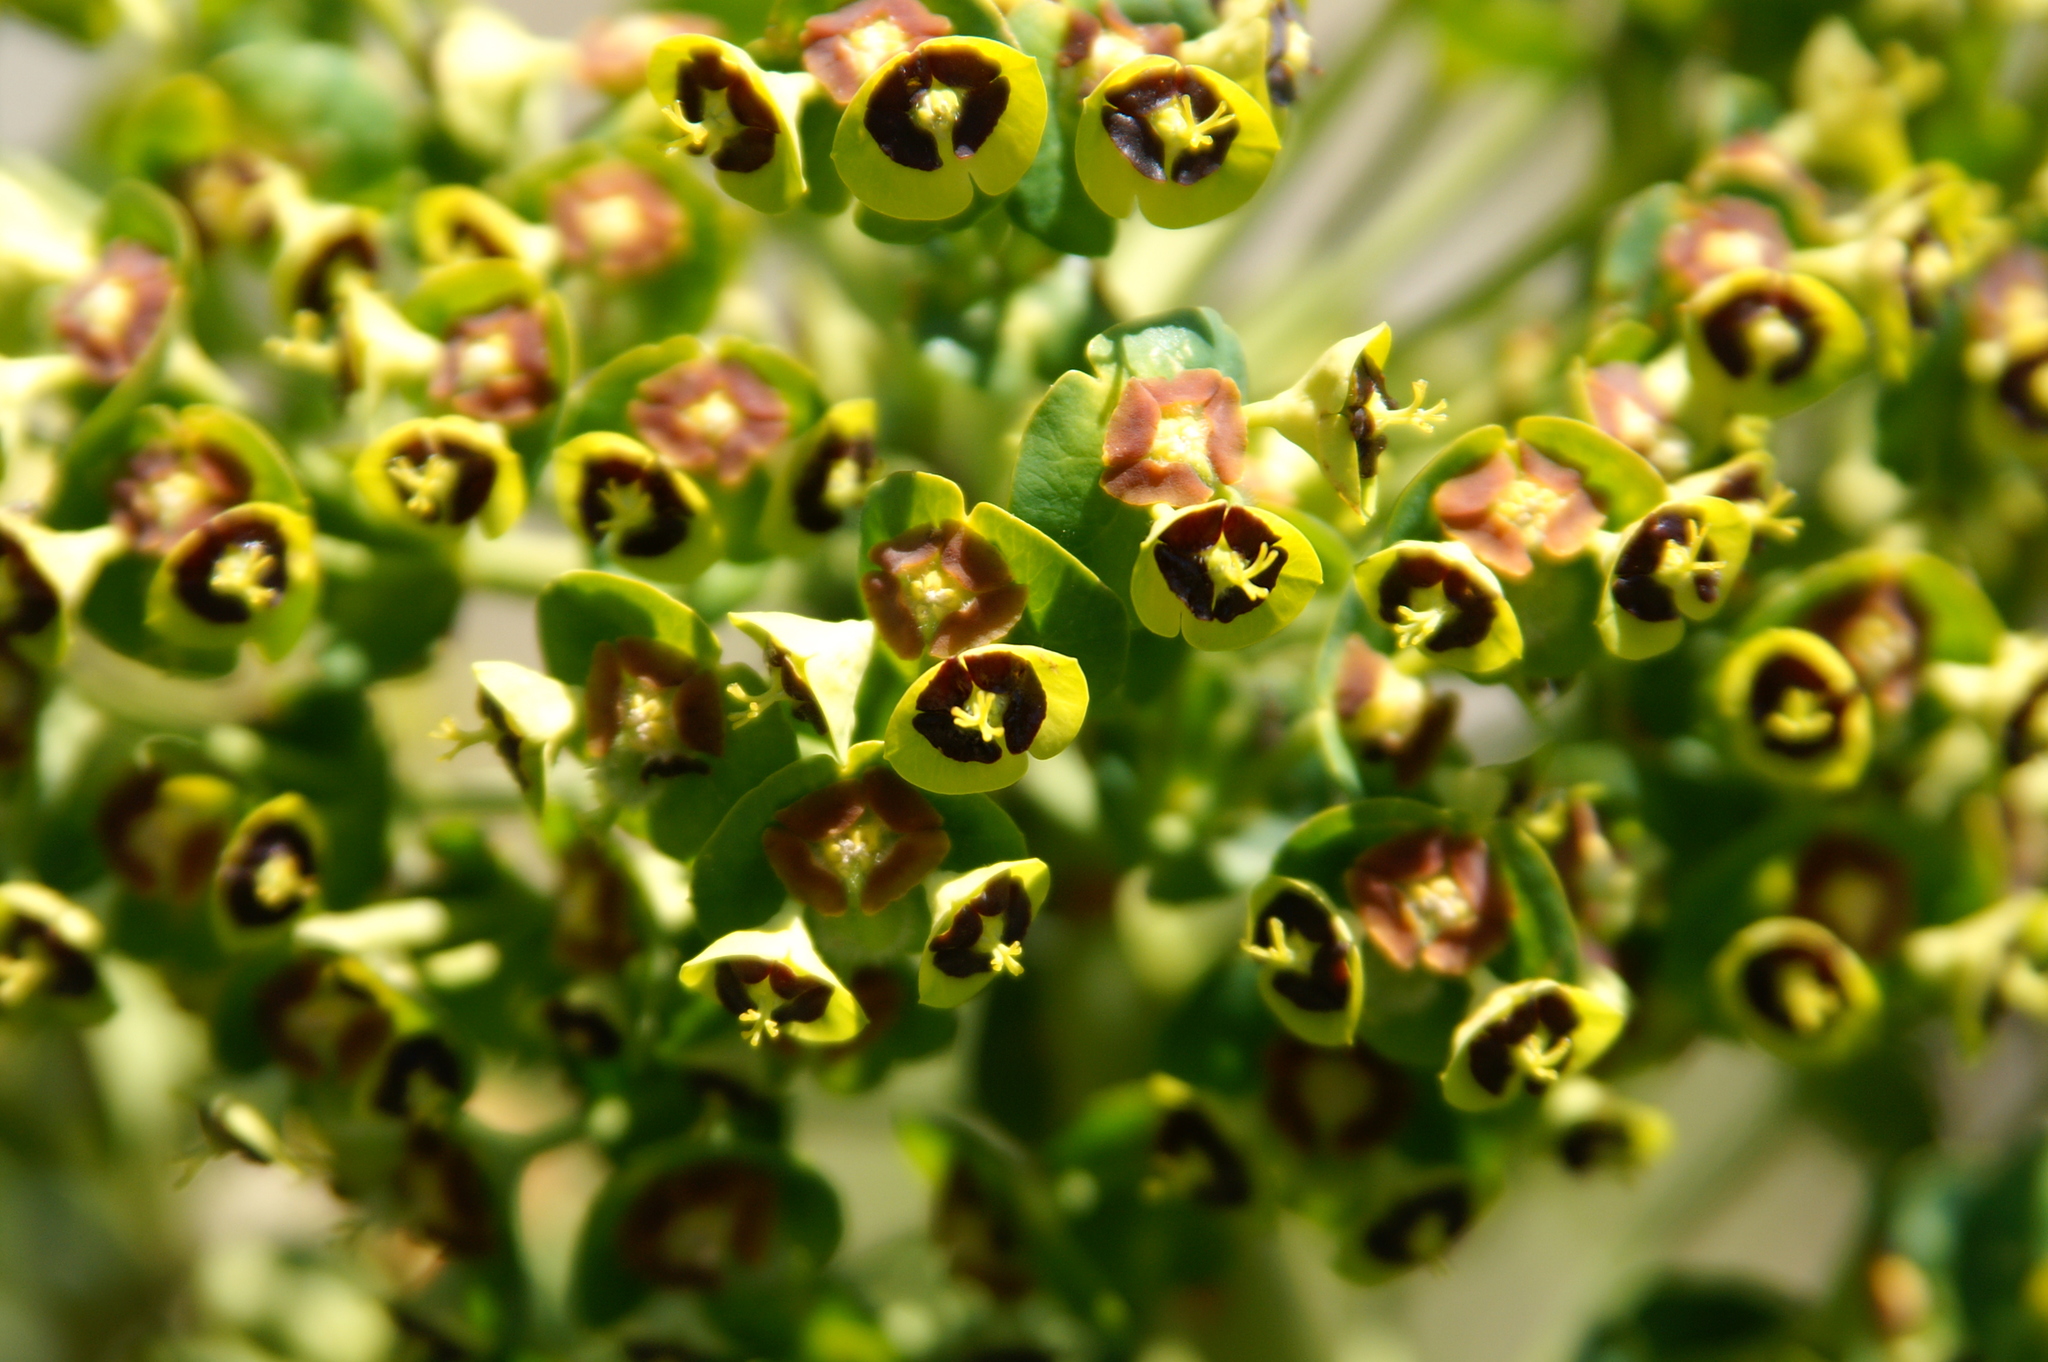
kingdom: Plantae
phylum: Tracheophyta
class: Magnoliopsida
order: Malpighiales
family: Euphorbiaceae
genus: Euphorbia
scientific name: Euphorbia characias
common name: Mediterranean spurge
